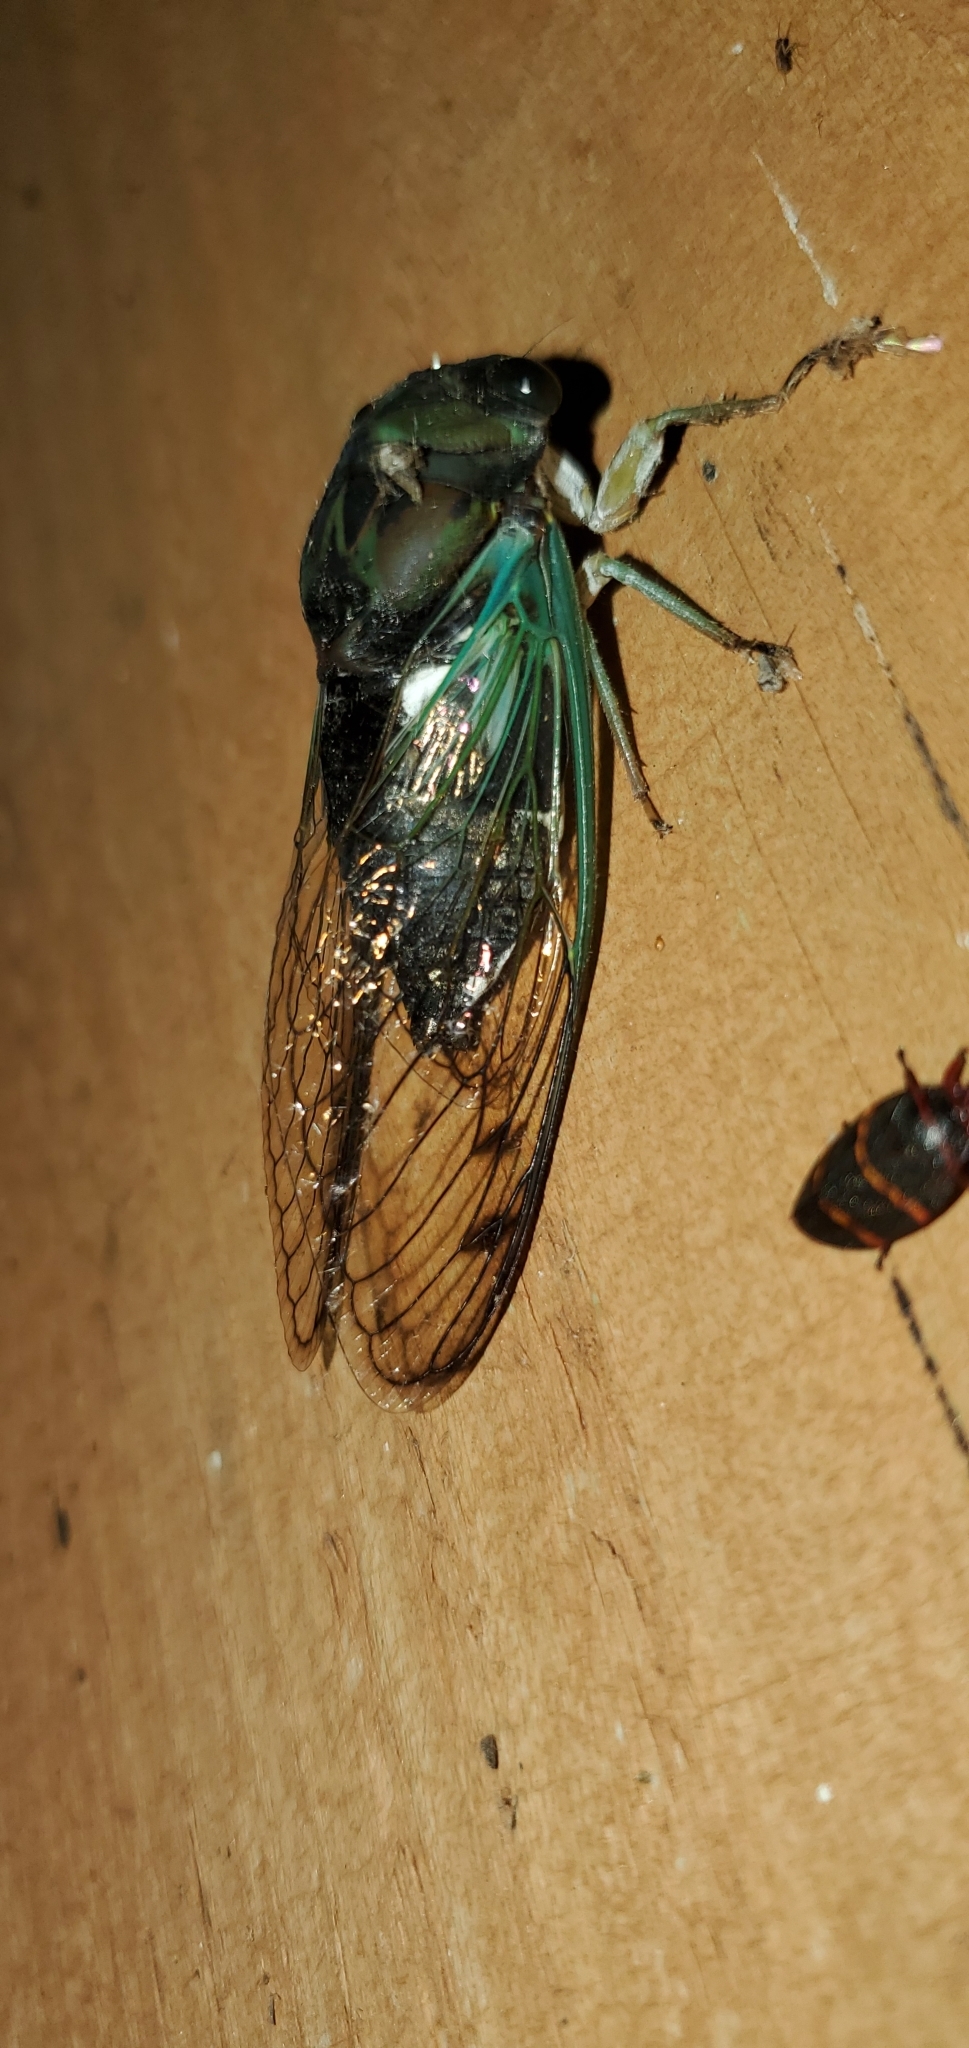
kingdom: Animalia
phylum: Arthropoda
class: Insecta
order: Hemiptera
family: Cicadidae
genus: Neotibicen
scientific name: Neotibicen tibicen
